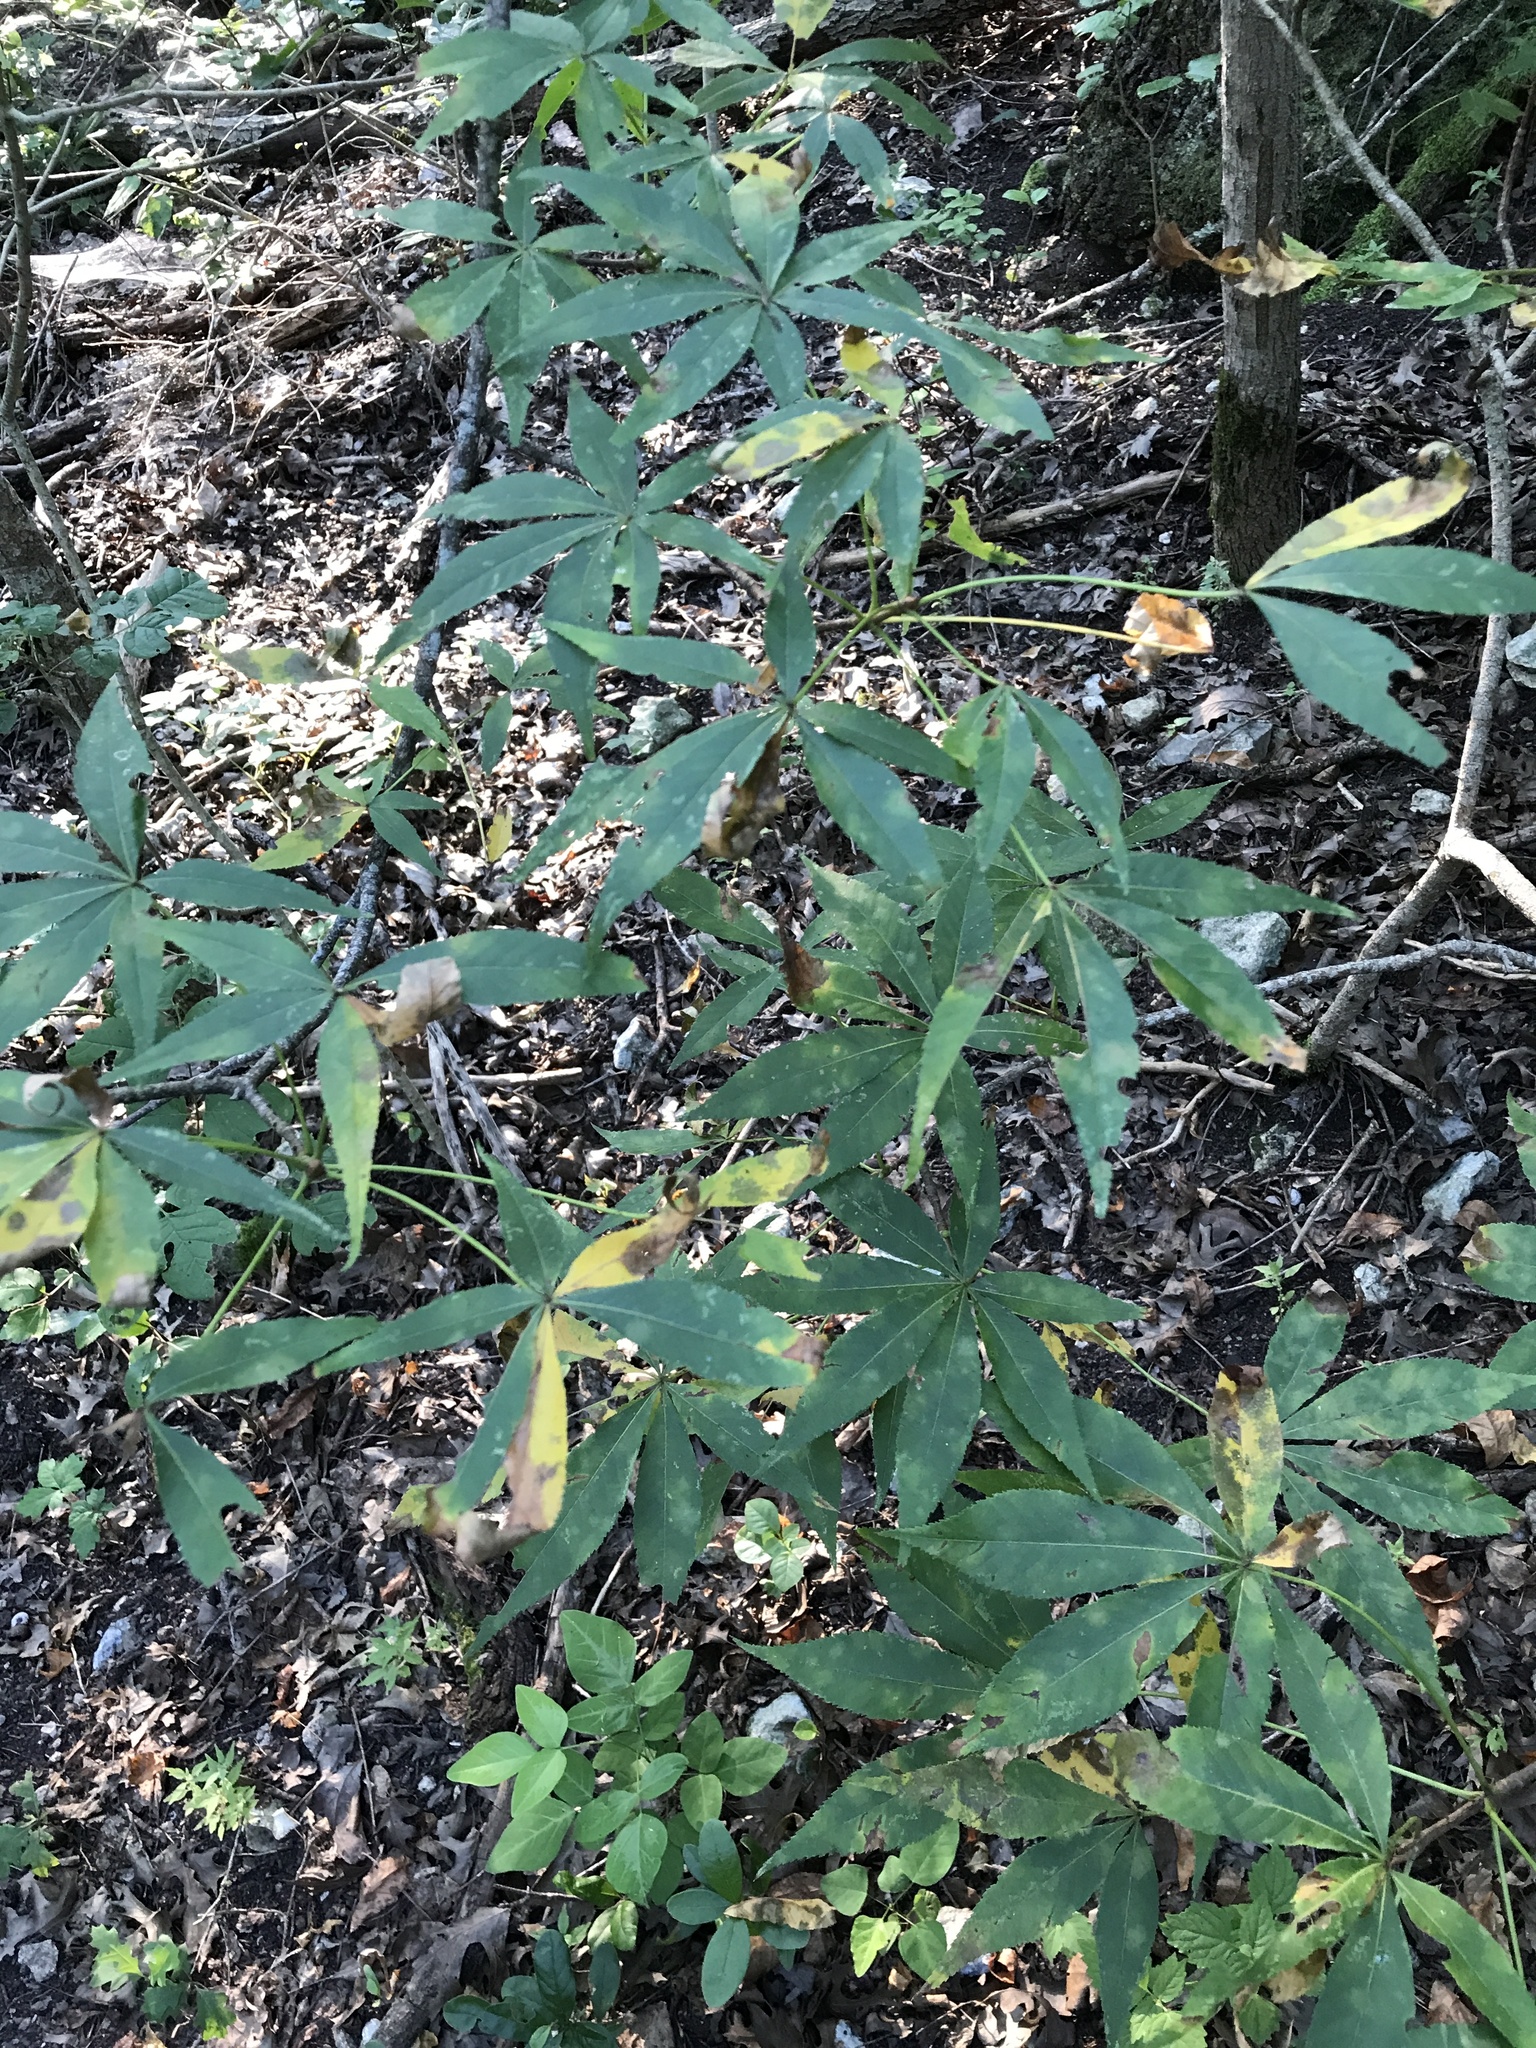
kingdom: Plantae
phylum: Tracheophyta
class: Magnoliopsida
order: Sapindales
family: Sapindaceae
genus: Aesculus
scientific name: Aesculus glabra
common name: Ohio buckeye
